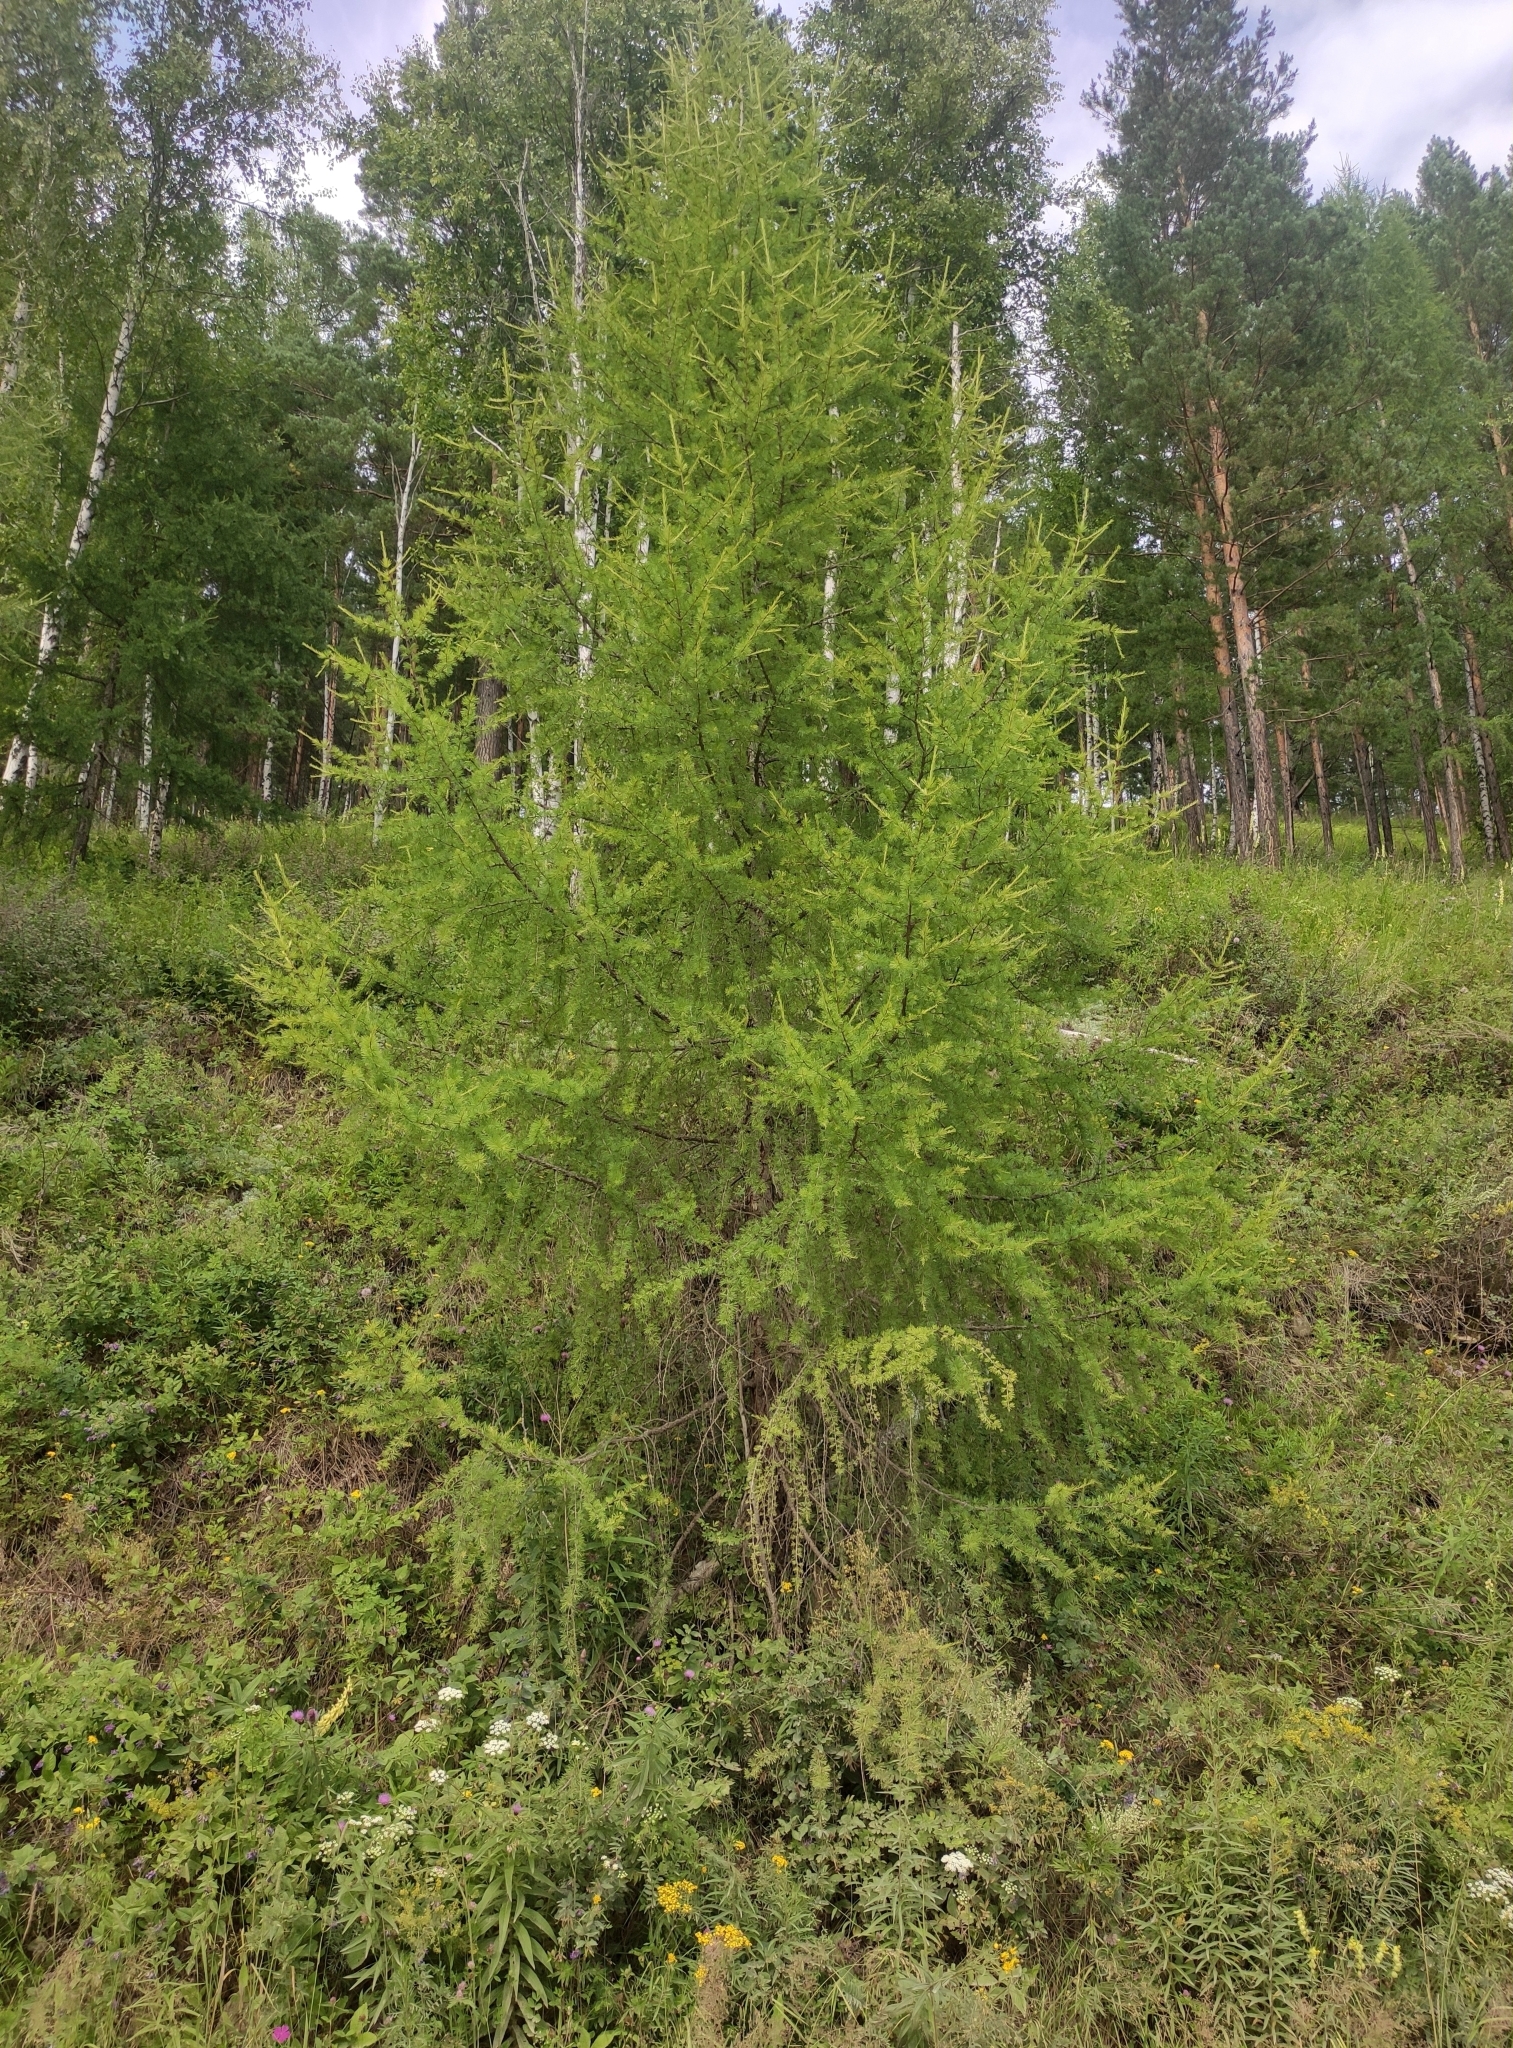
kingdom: Plantae
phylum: Tracheophyta
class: Pinopsida
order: Pinales
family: Pinaceae
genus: Larix
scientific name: Larix sibirica
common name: Siberian larch
